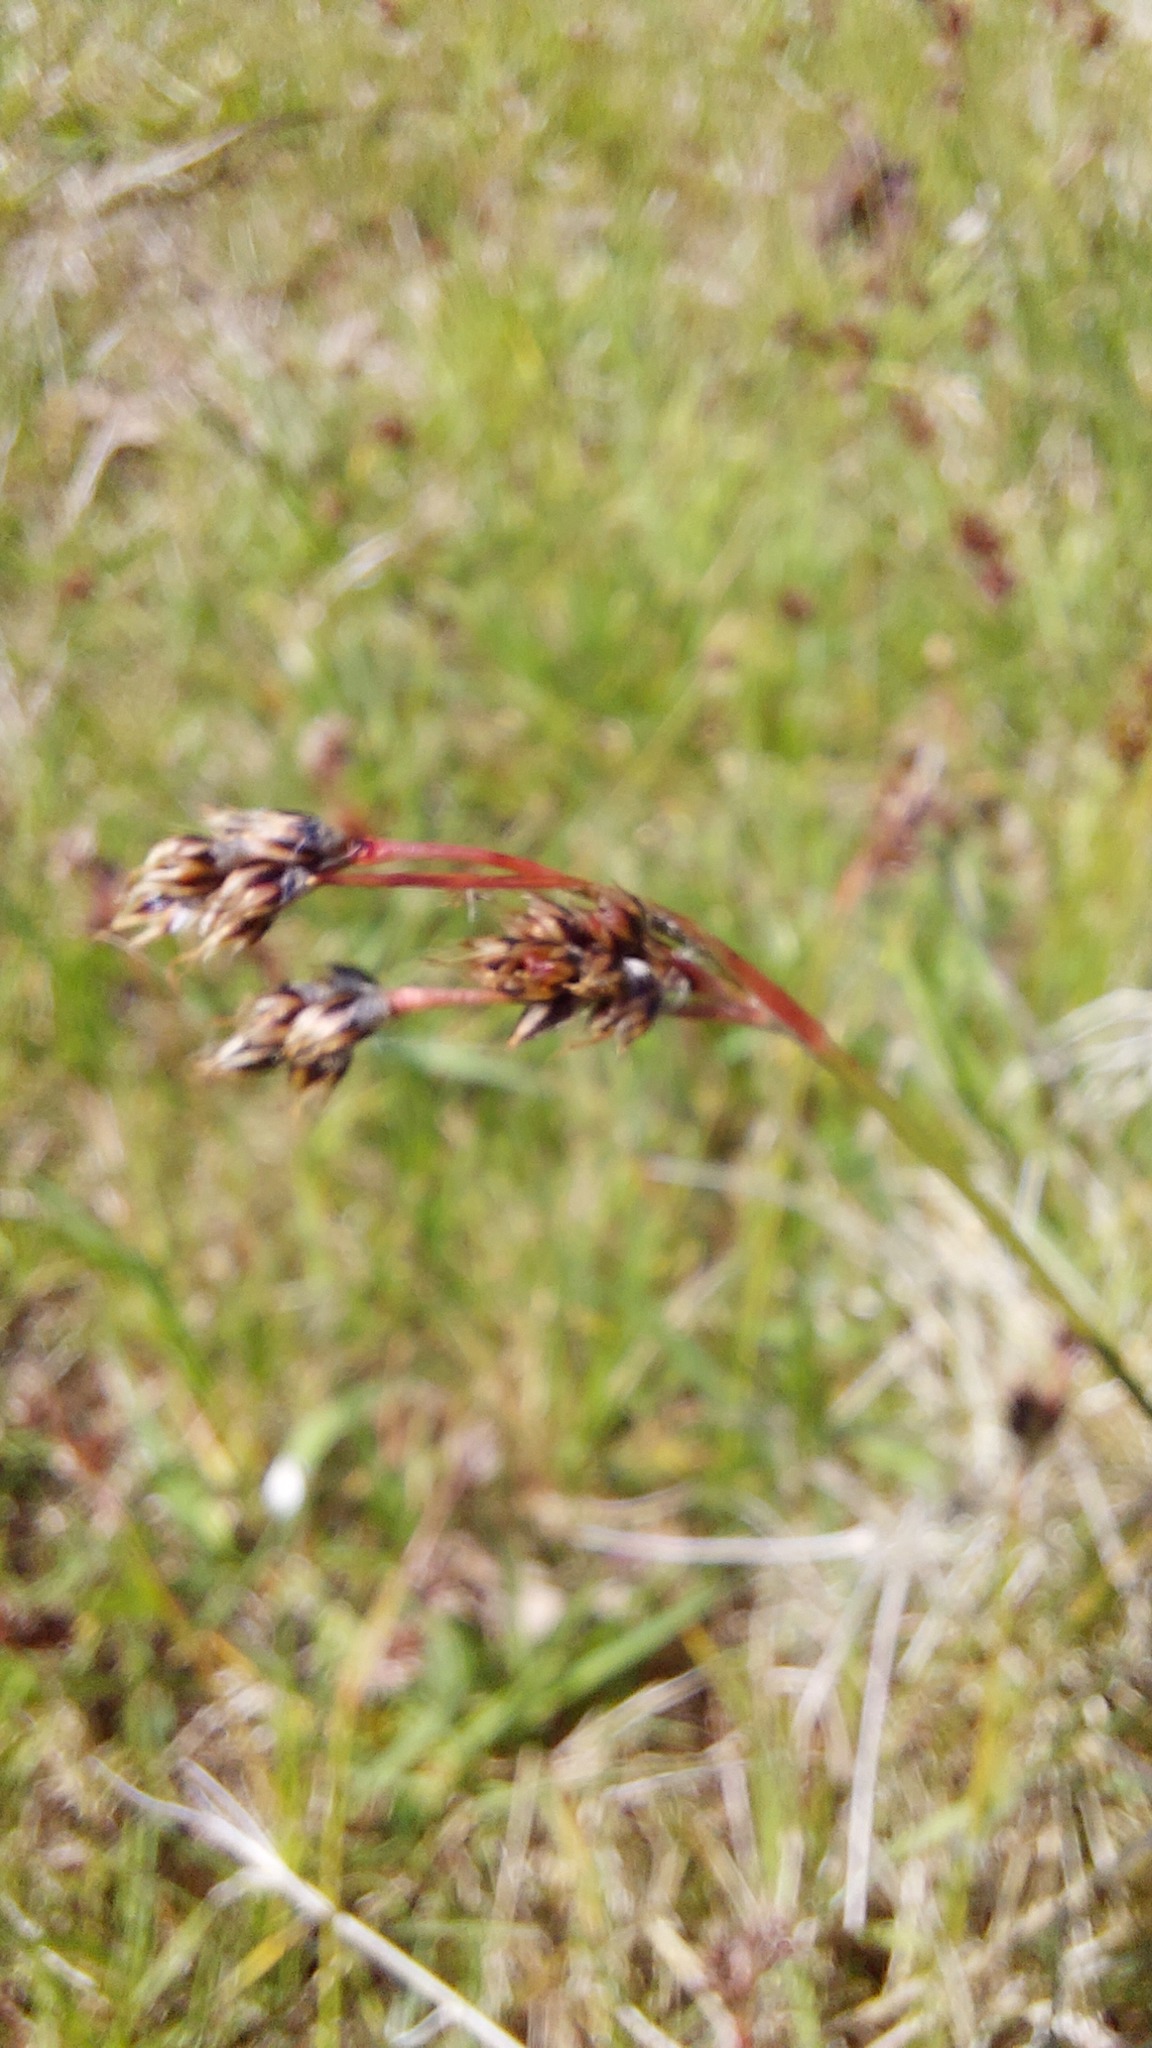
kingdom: Plantae
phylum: Tracheophyta
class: Liliopsida
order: Poales
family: Juncaceae
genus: Luzula
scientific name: Luzula campestris
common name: Field wood-rush
